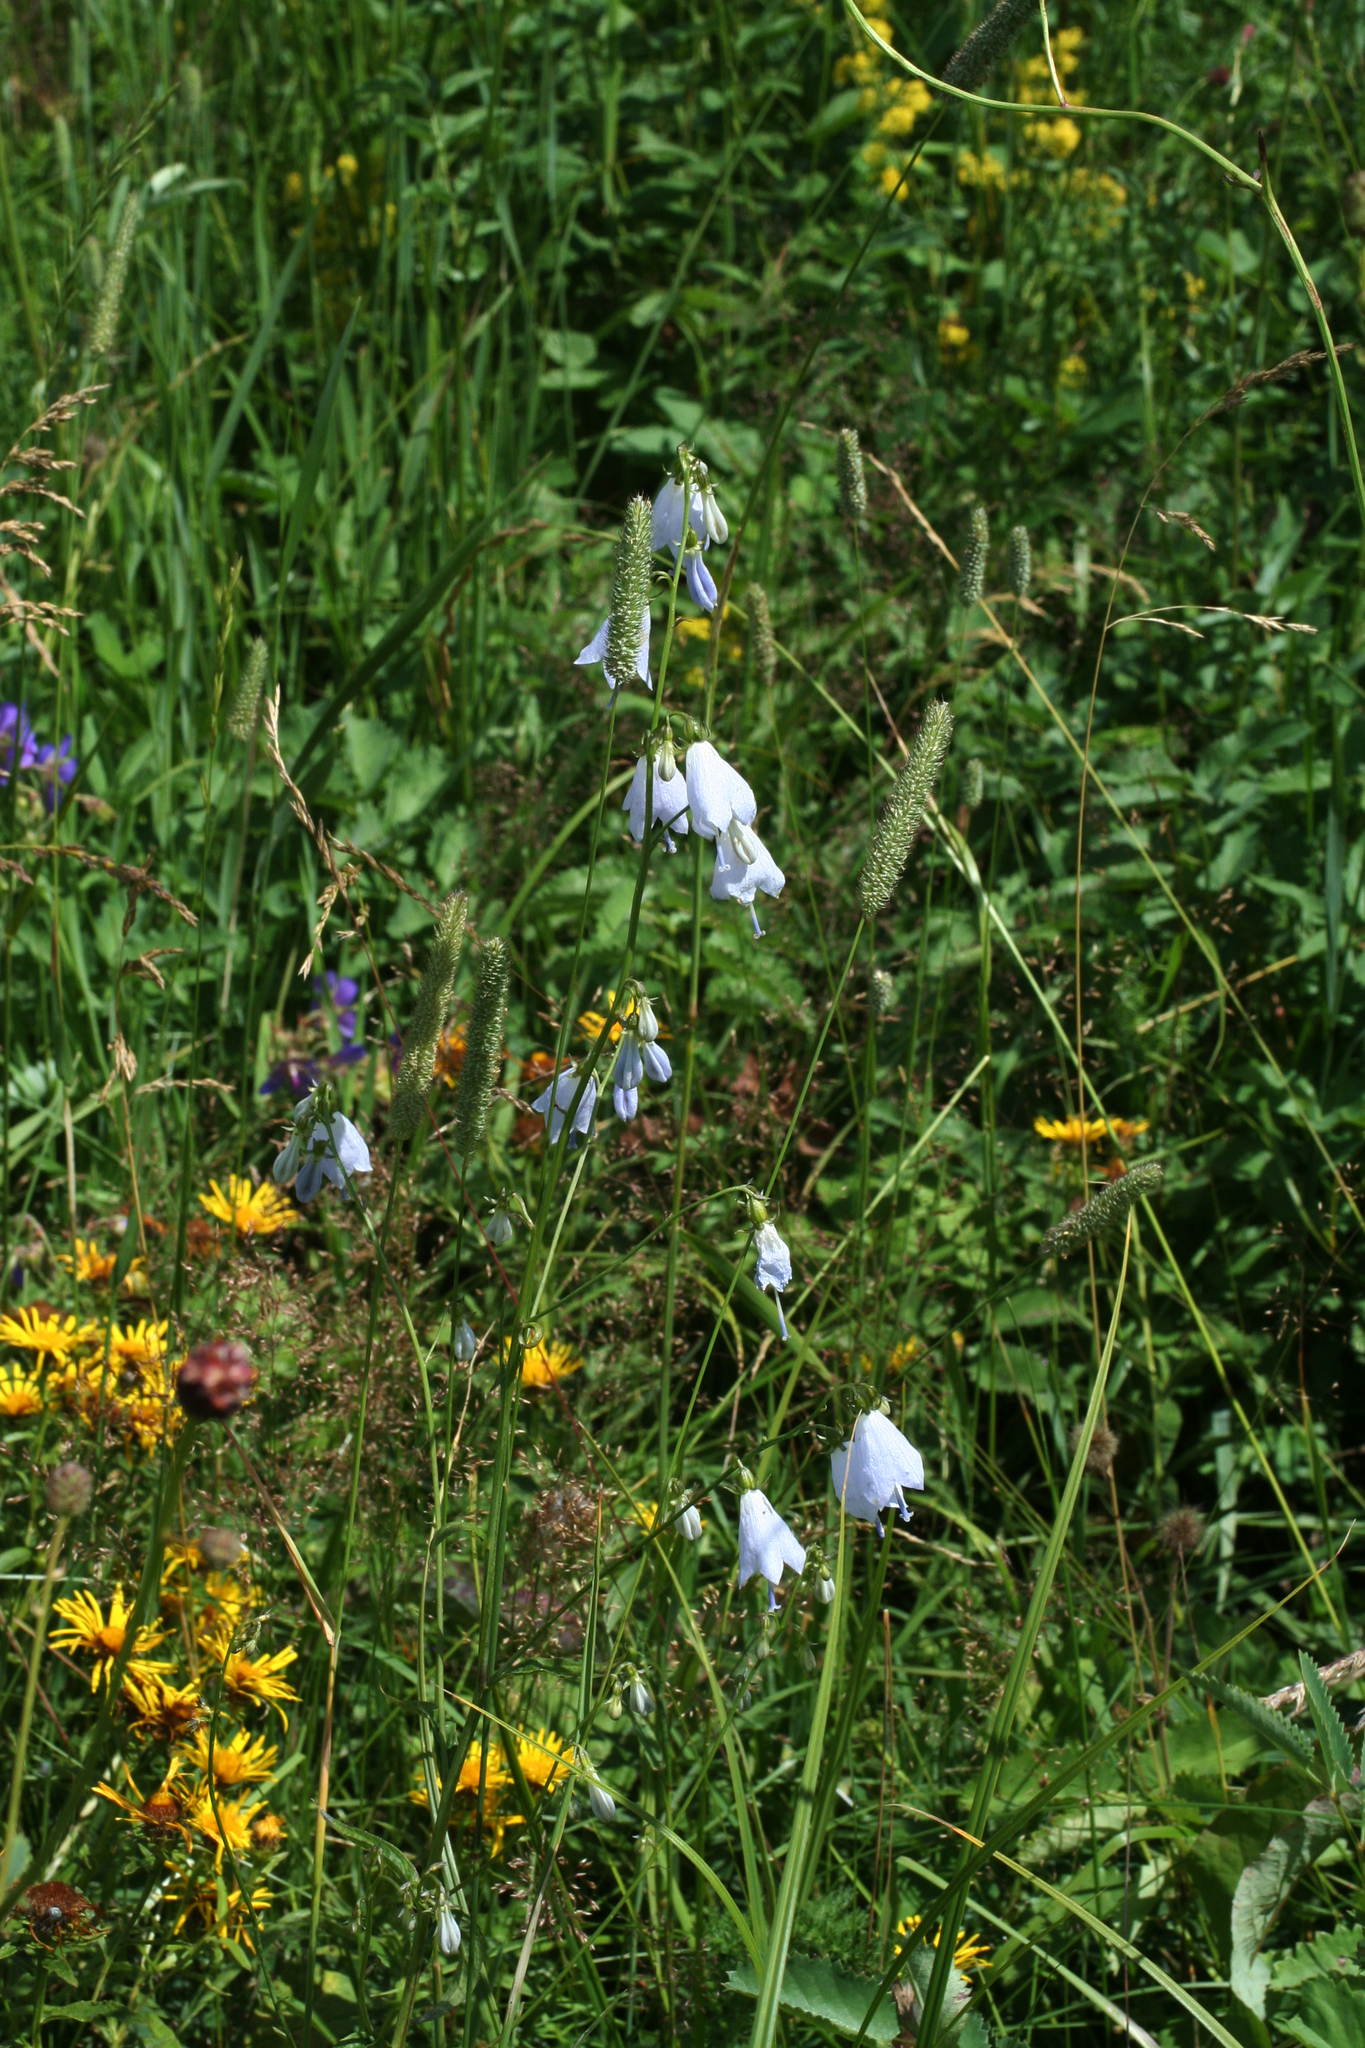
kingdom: Plantae
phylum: Tracheophyta
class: Magnoliopsida
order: Asterales
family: Campanulaceae
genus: Adenophora
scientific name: Adenophora liliifolia
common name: Lilyleaf ladybells
